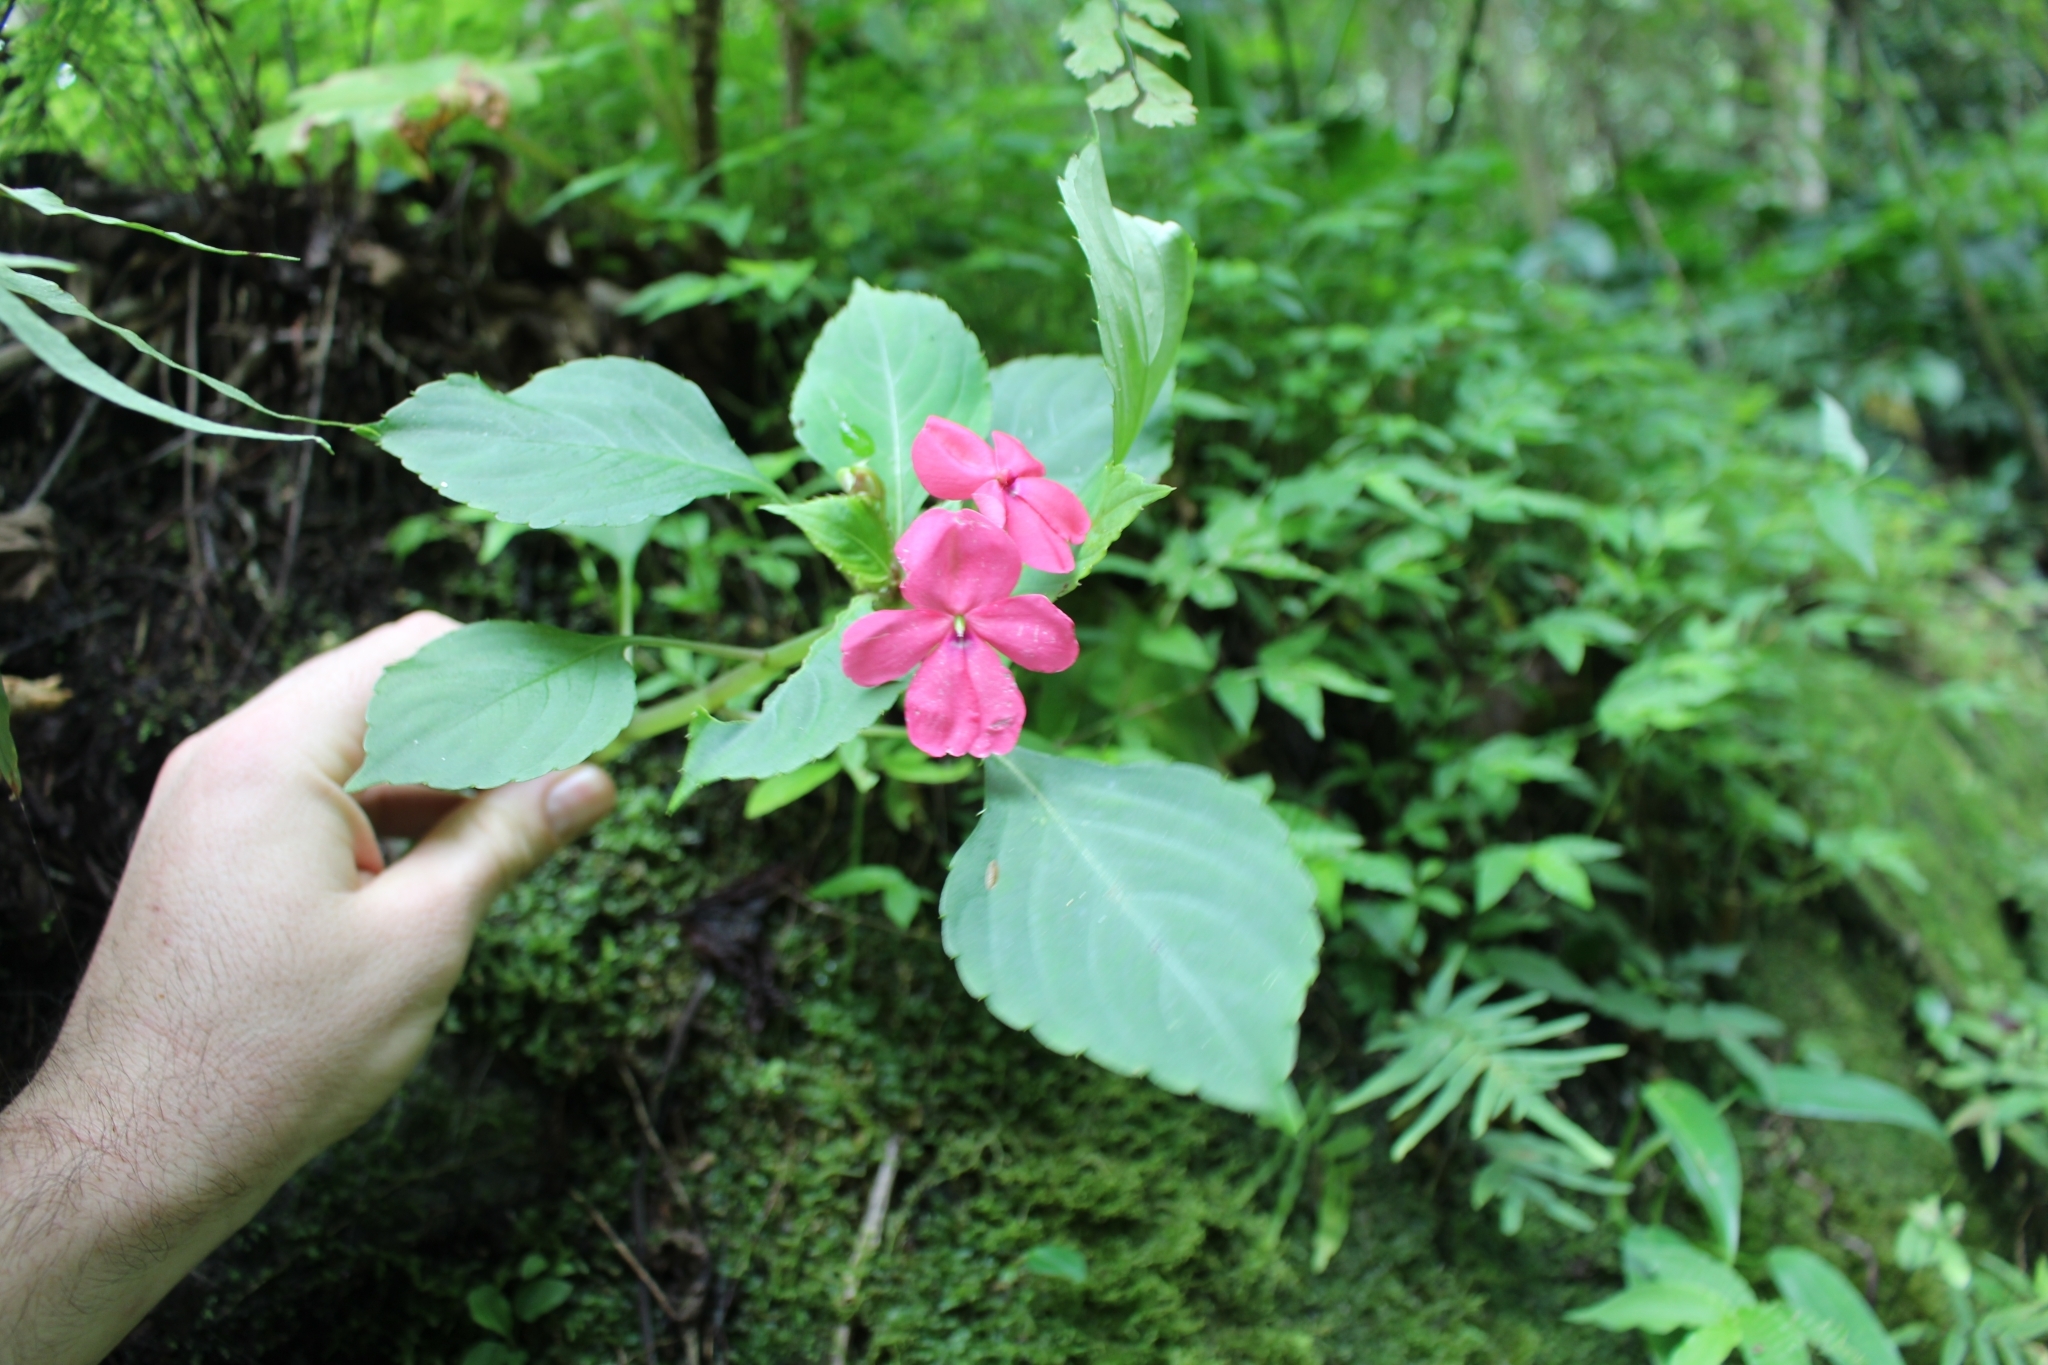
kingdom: Plantae
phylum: Tracheophyta
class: Magnoliopsida
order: Ericales
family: Balsaminaceae
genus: Impatiens
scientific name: Impatiens walleriana
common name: Buzzy lizzy
